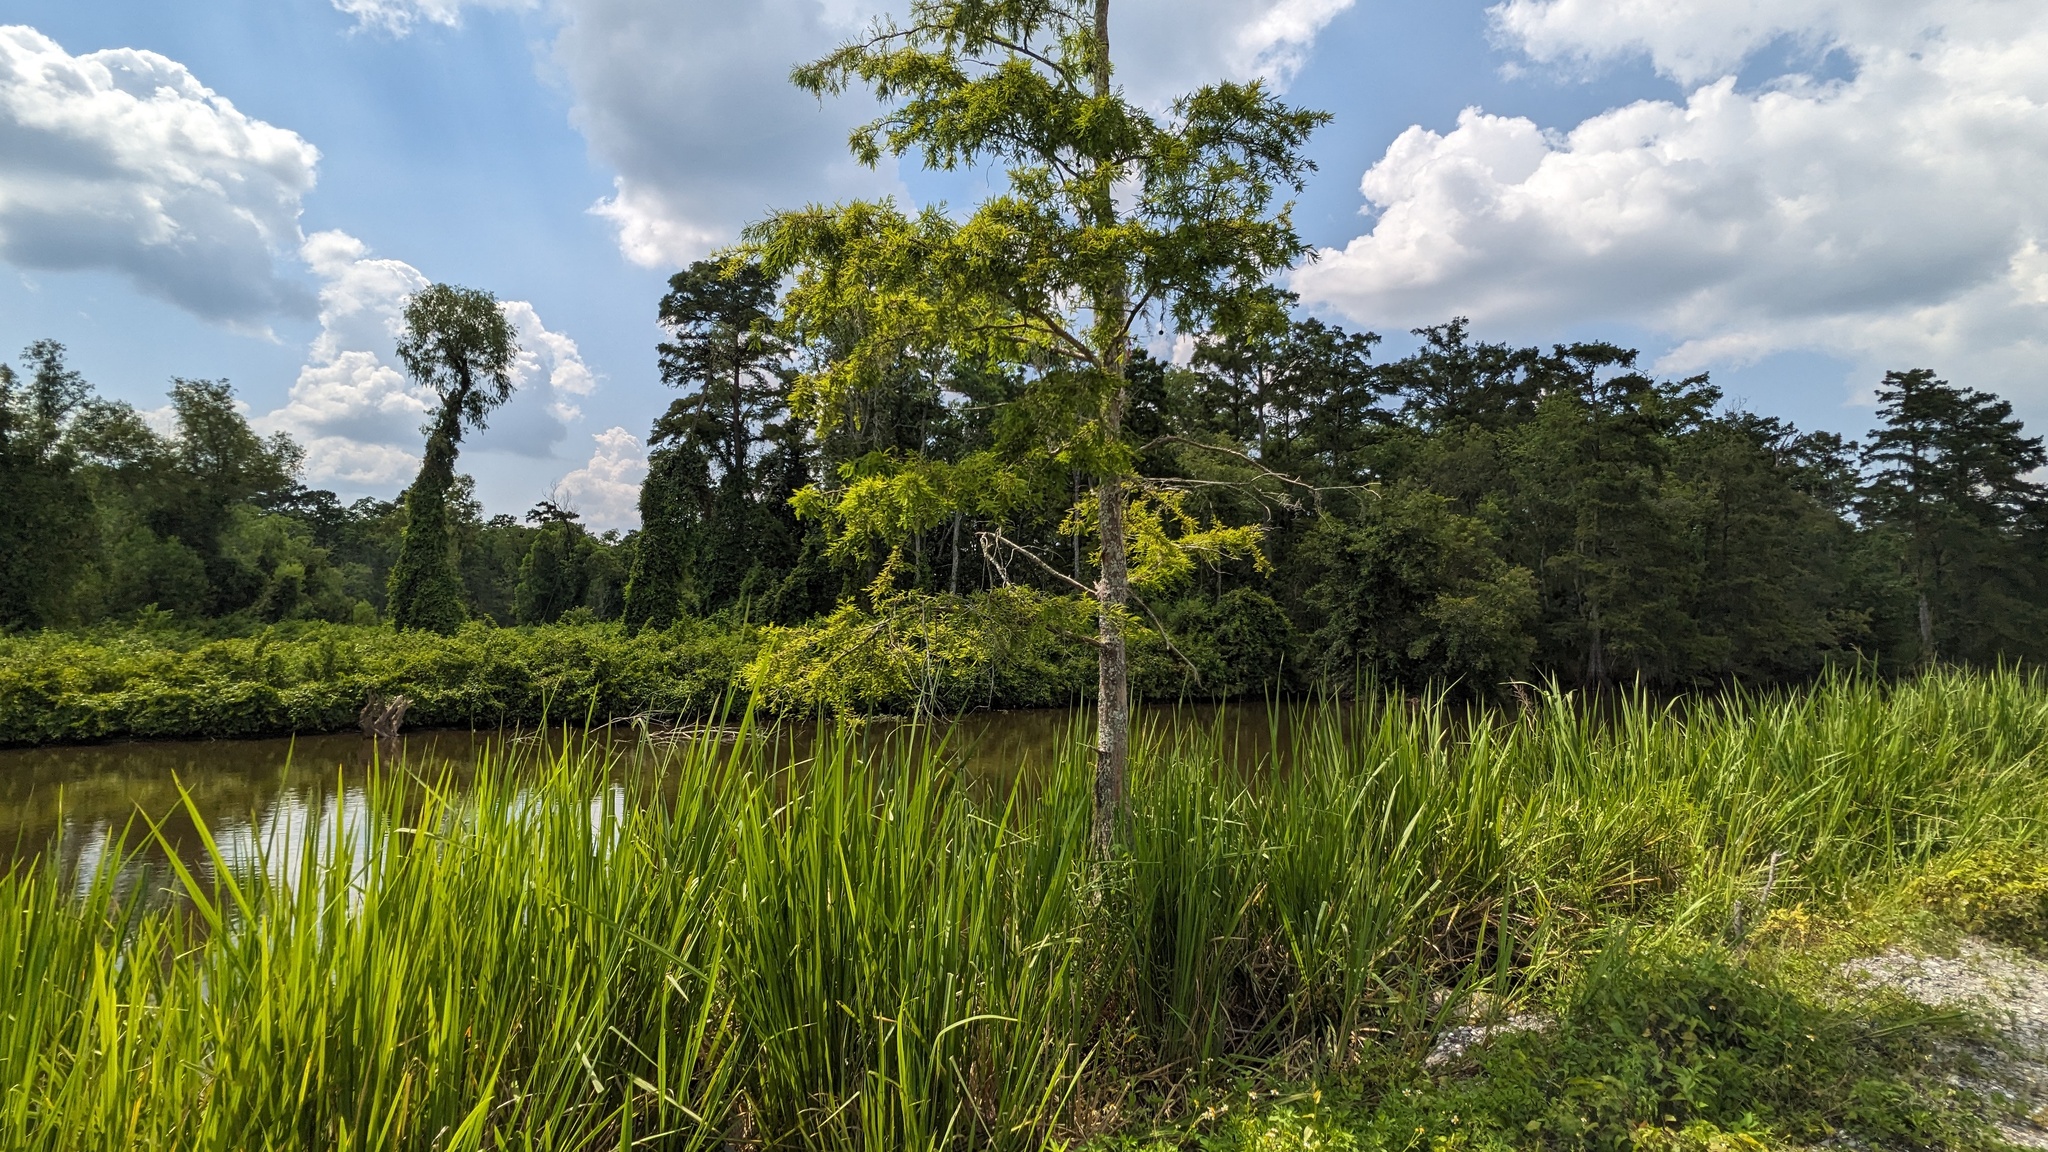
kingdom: Plantae
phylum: Tracheophyta
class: Pinopsida
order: Pinales
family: Cupressaceae
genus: Taxodium
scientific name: Taxodium distichum
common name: Bald cypress
